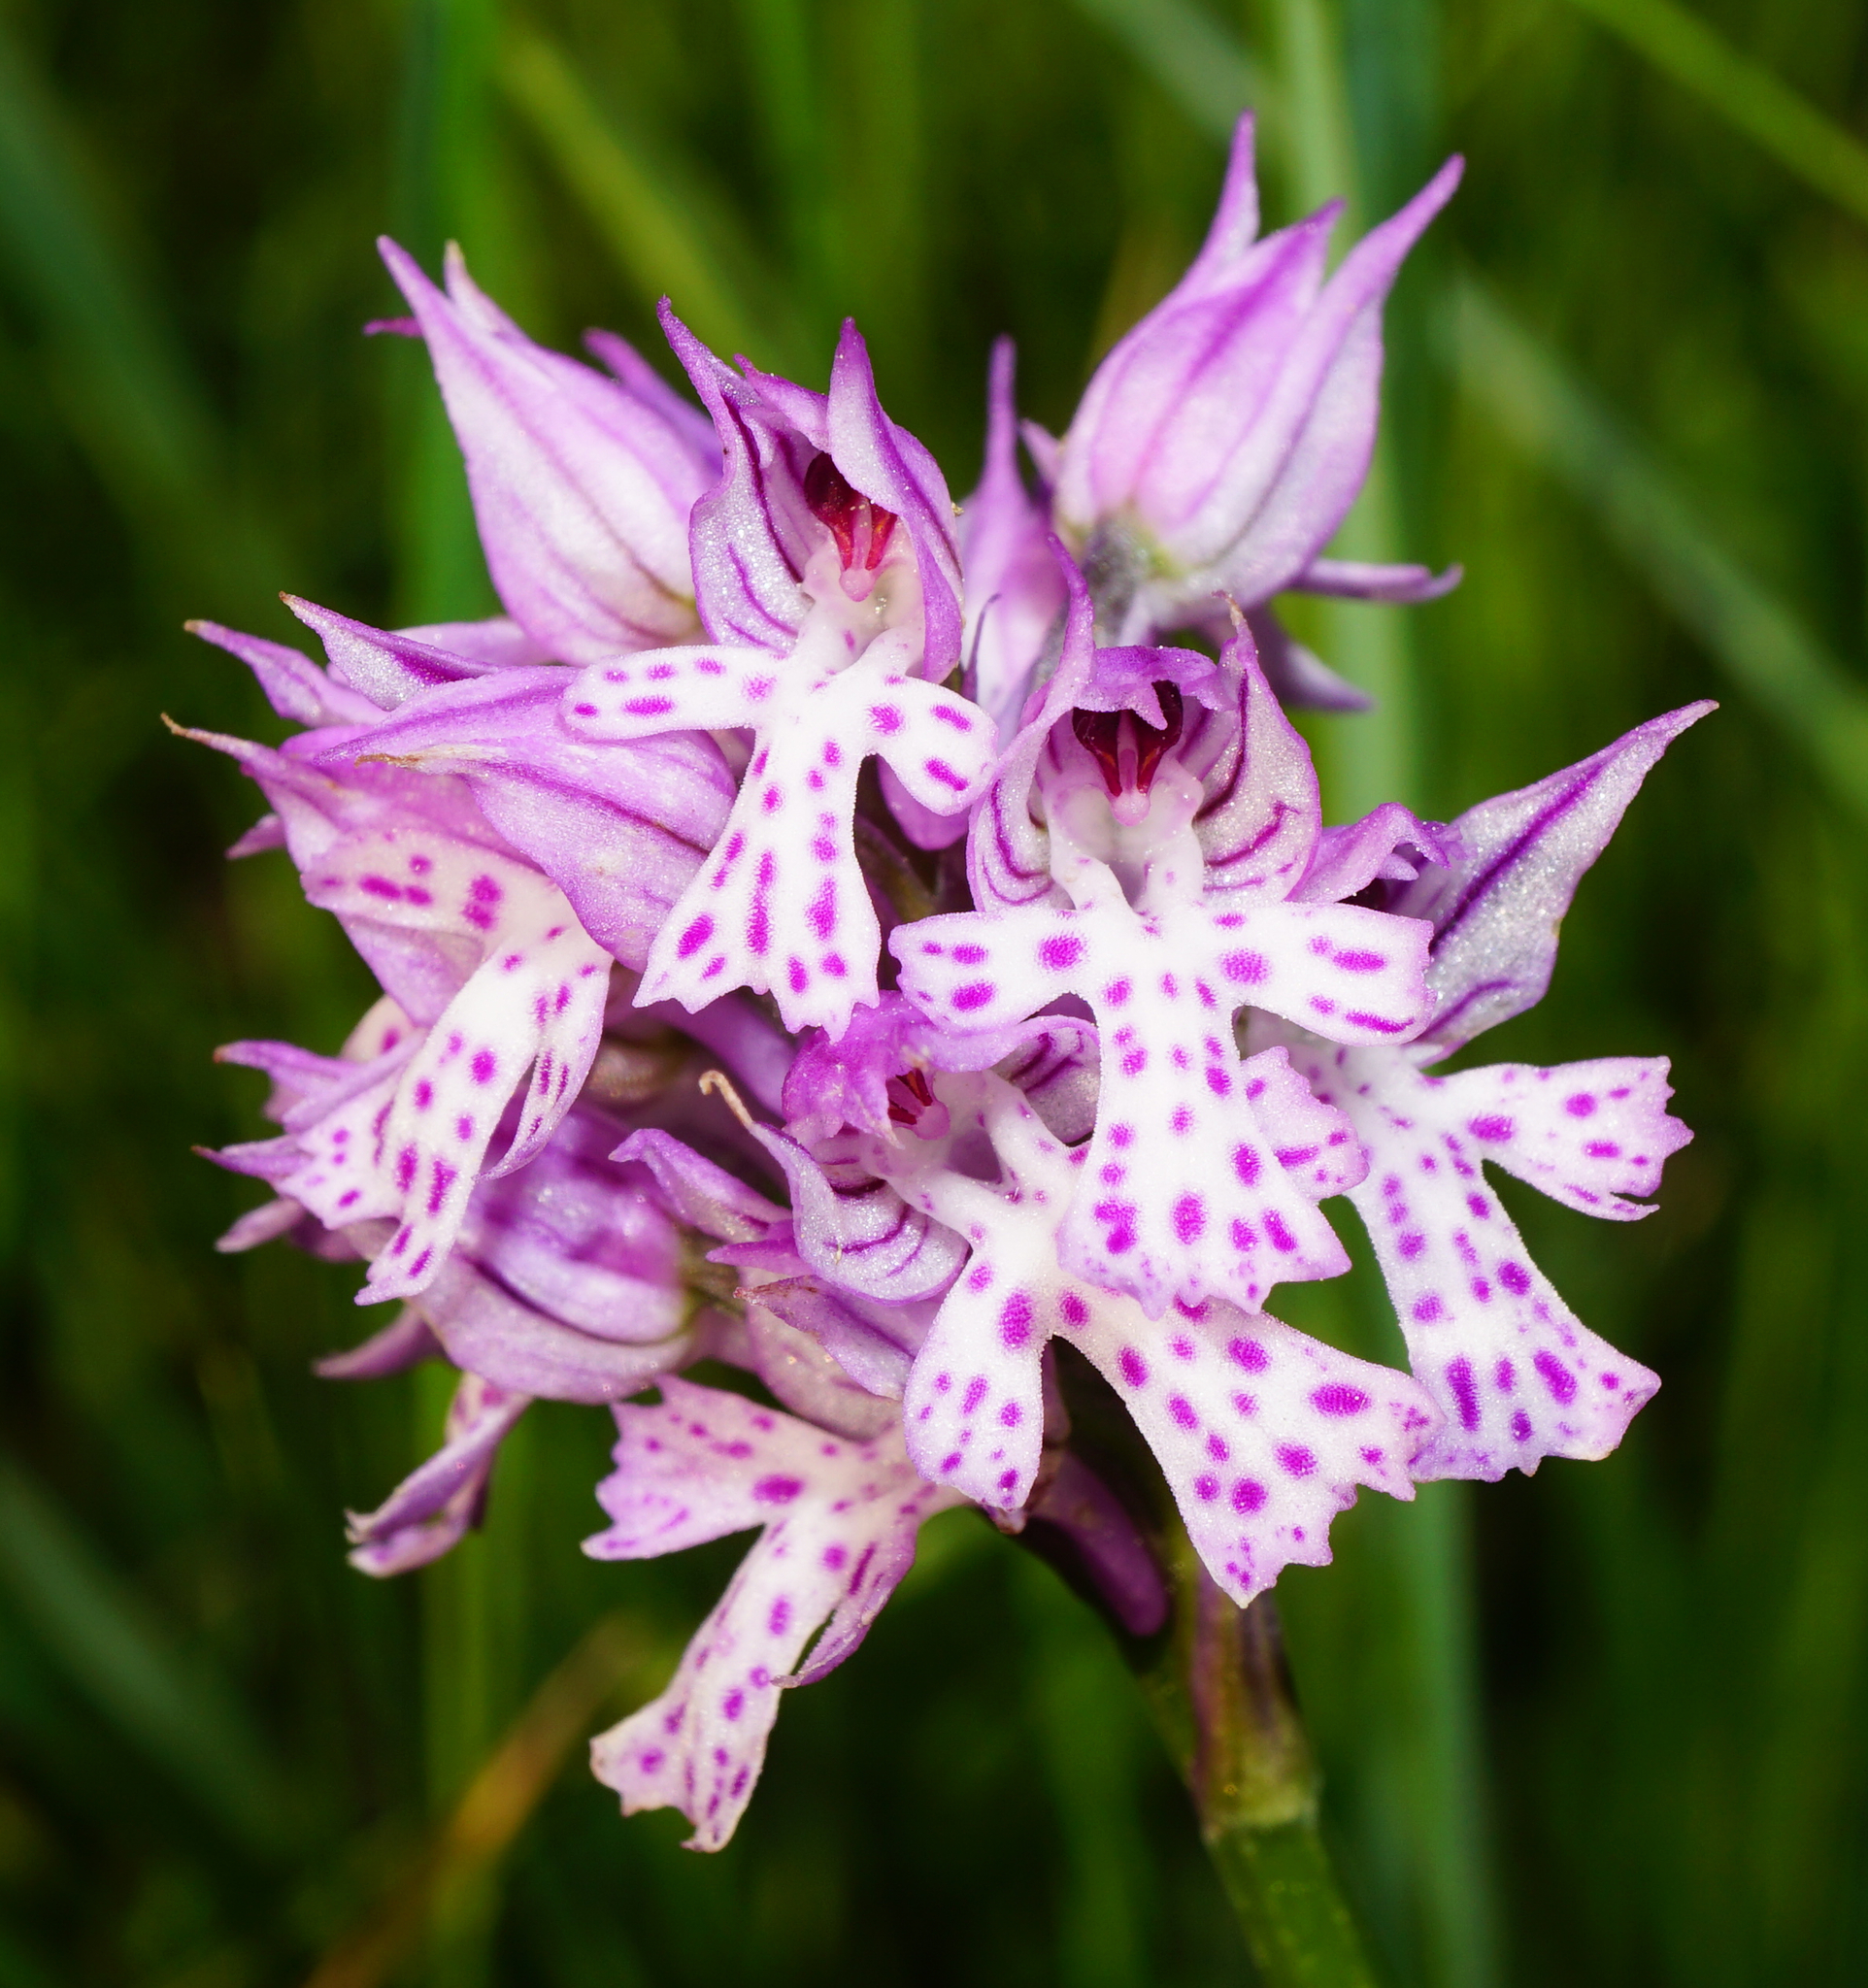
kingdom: Plantae
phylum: Tracheophyta
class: Liliopsida
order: Asparagales
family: Orchidaceae
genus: Neotinea
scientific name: Neotinea tridentata
